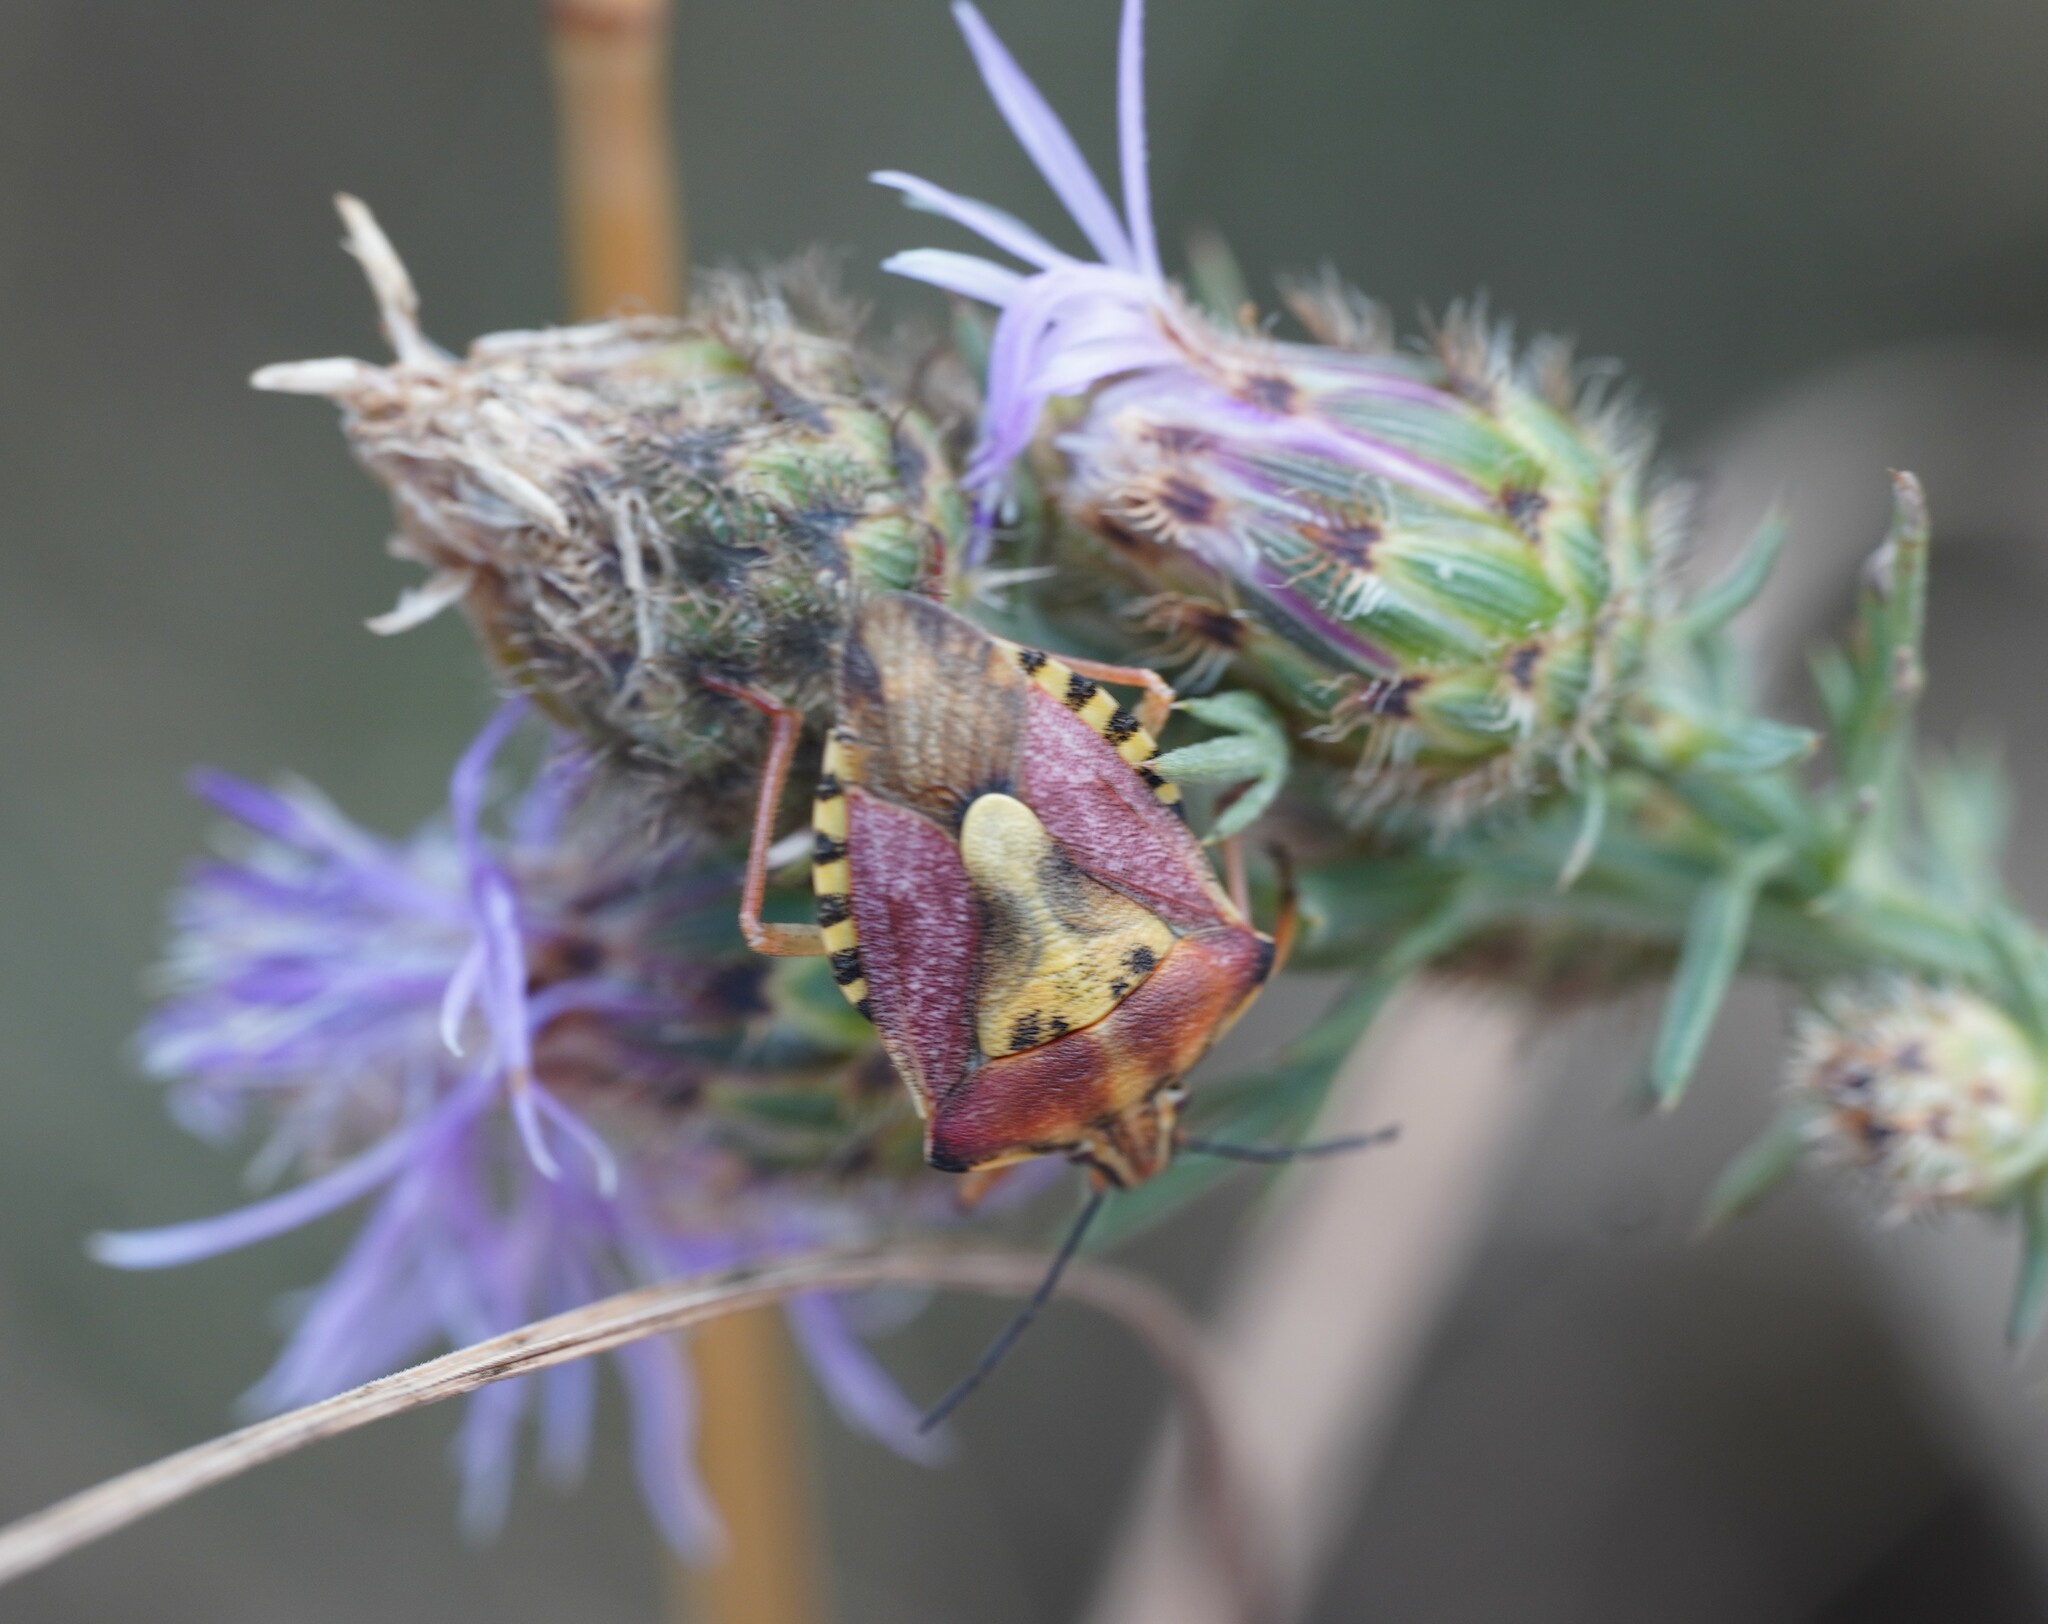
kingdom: Animalia
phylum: Arthropoda
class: Insecta
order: Hemiptera
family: Pentatomidae
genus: Carpocoris
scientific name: Carpocoris purpureipennis
